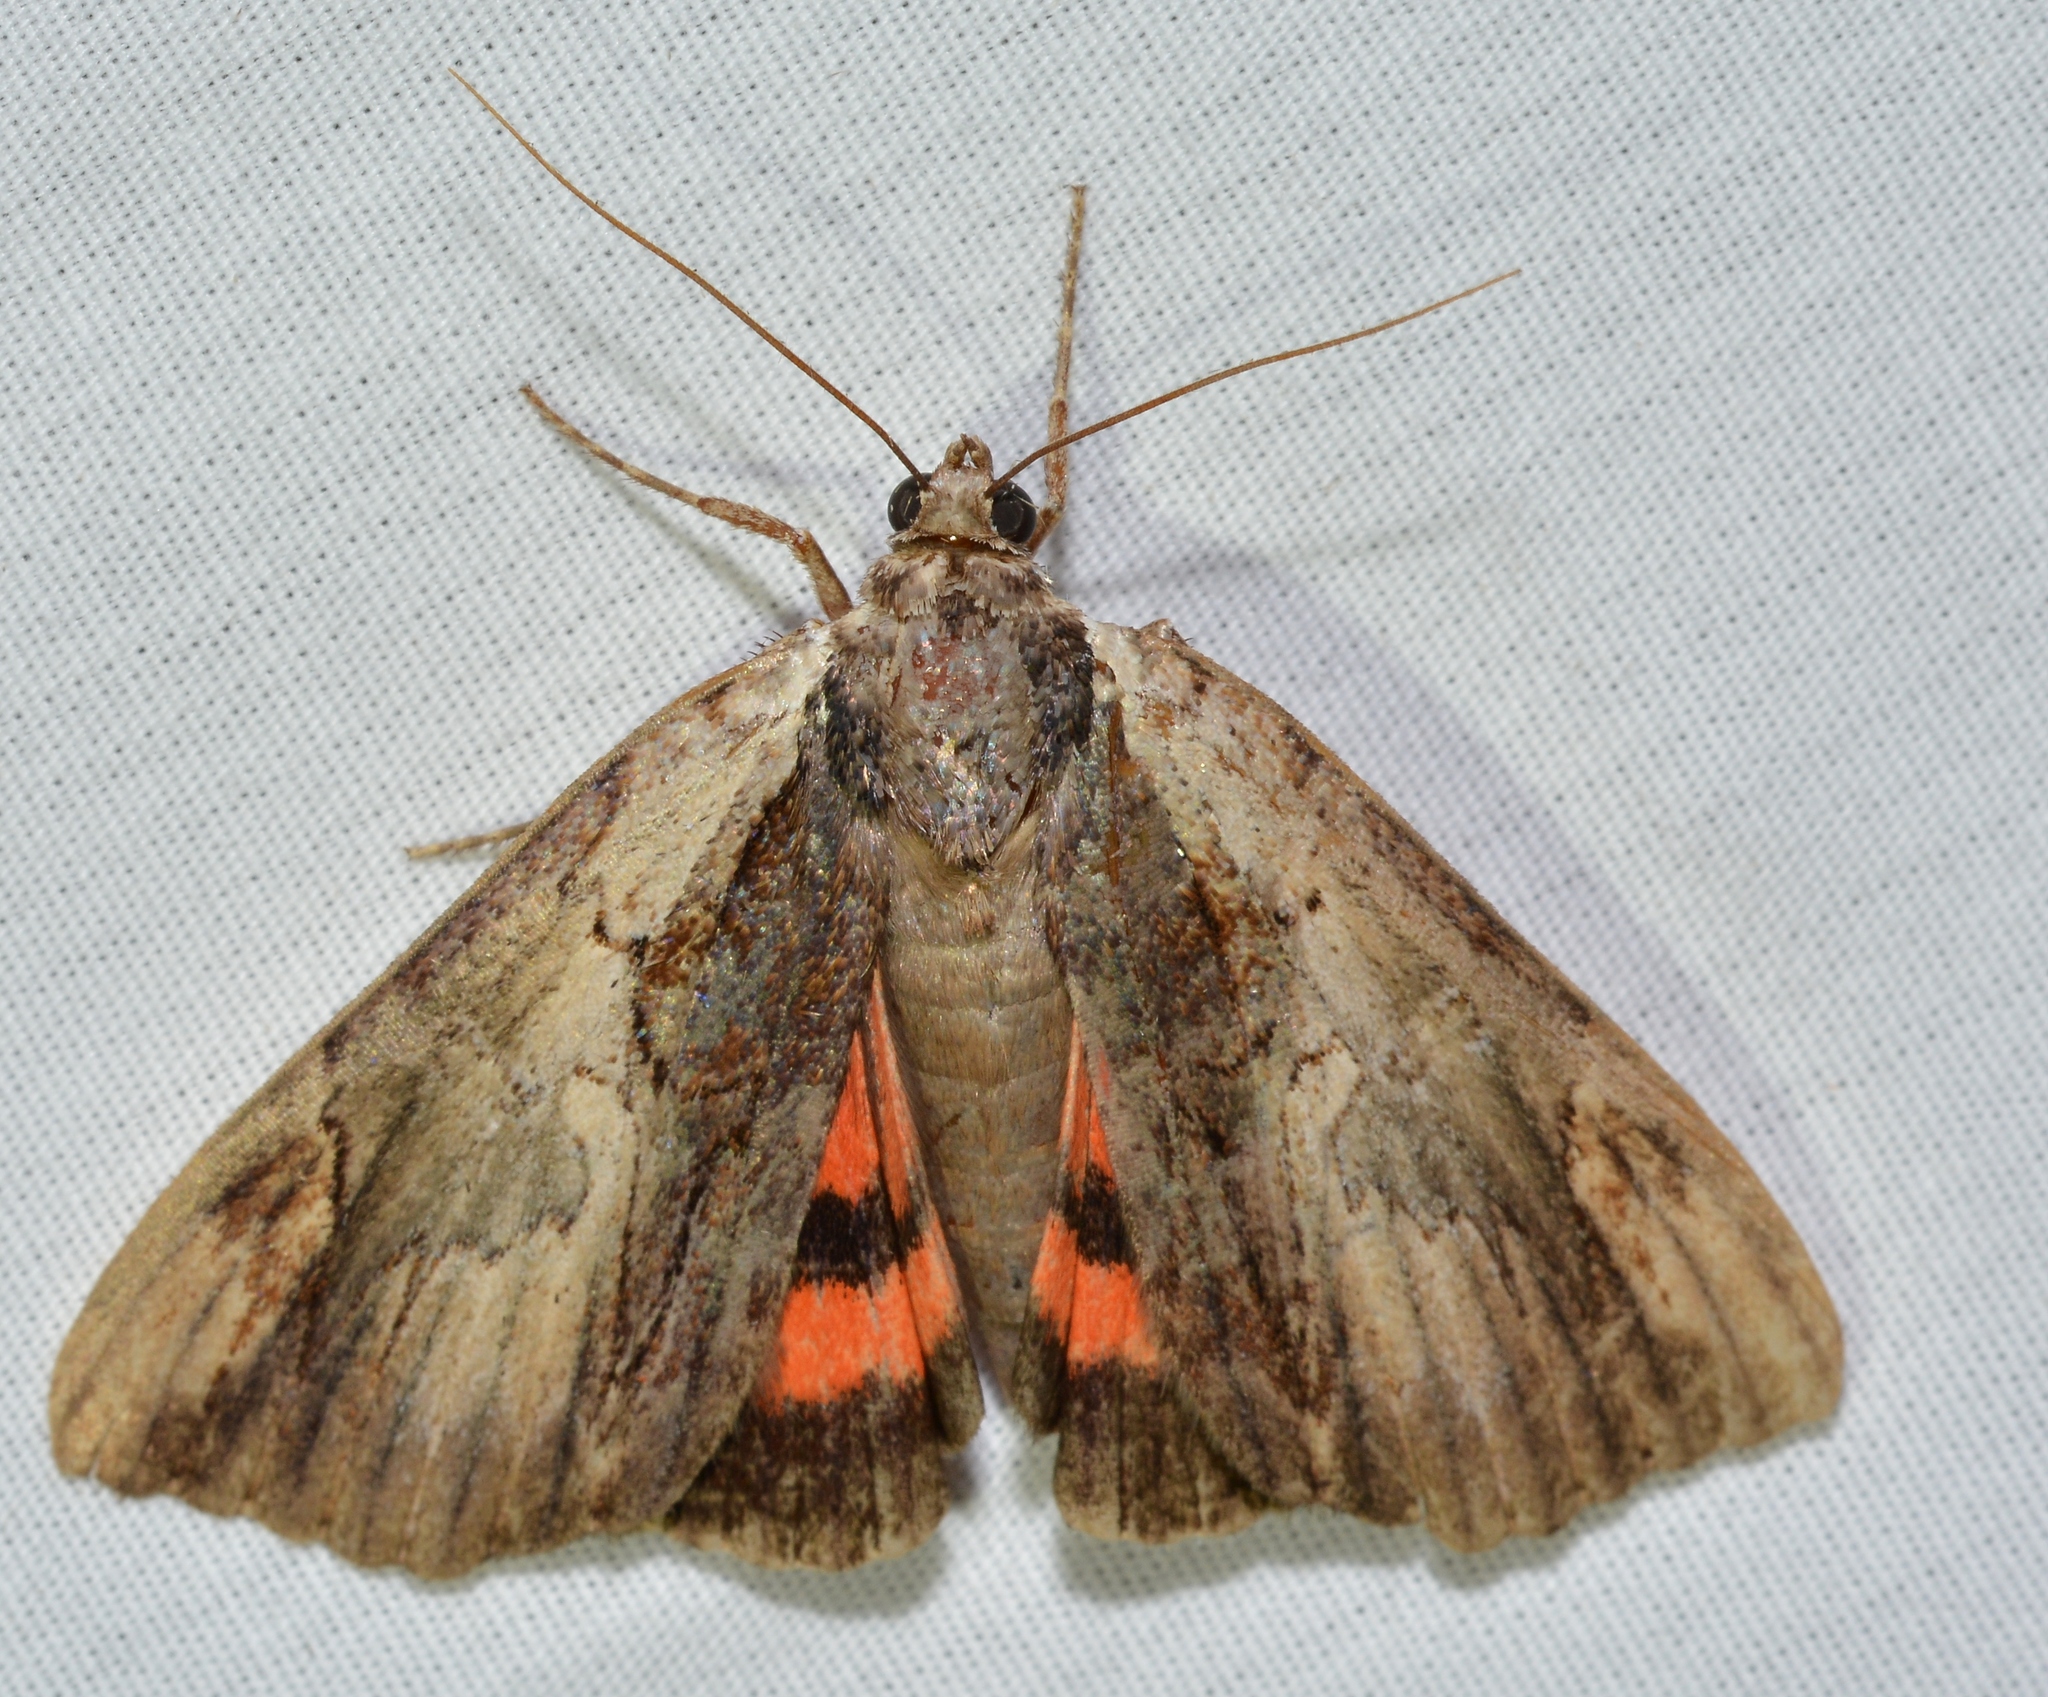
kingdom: Animalia
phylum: Arthropoda
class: Insecta
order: Lepidoptera
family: Erebidae
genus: Catocala
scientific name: Catocala ultronia
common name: Ultronia underwing
